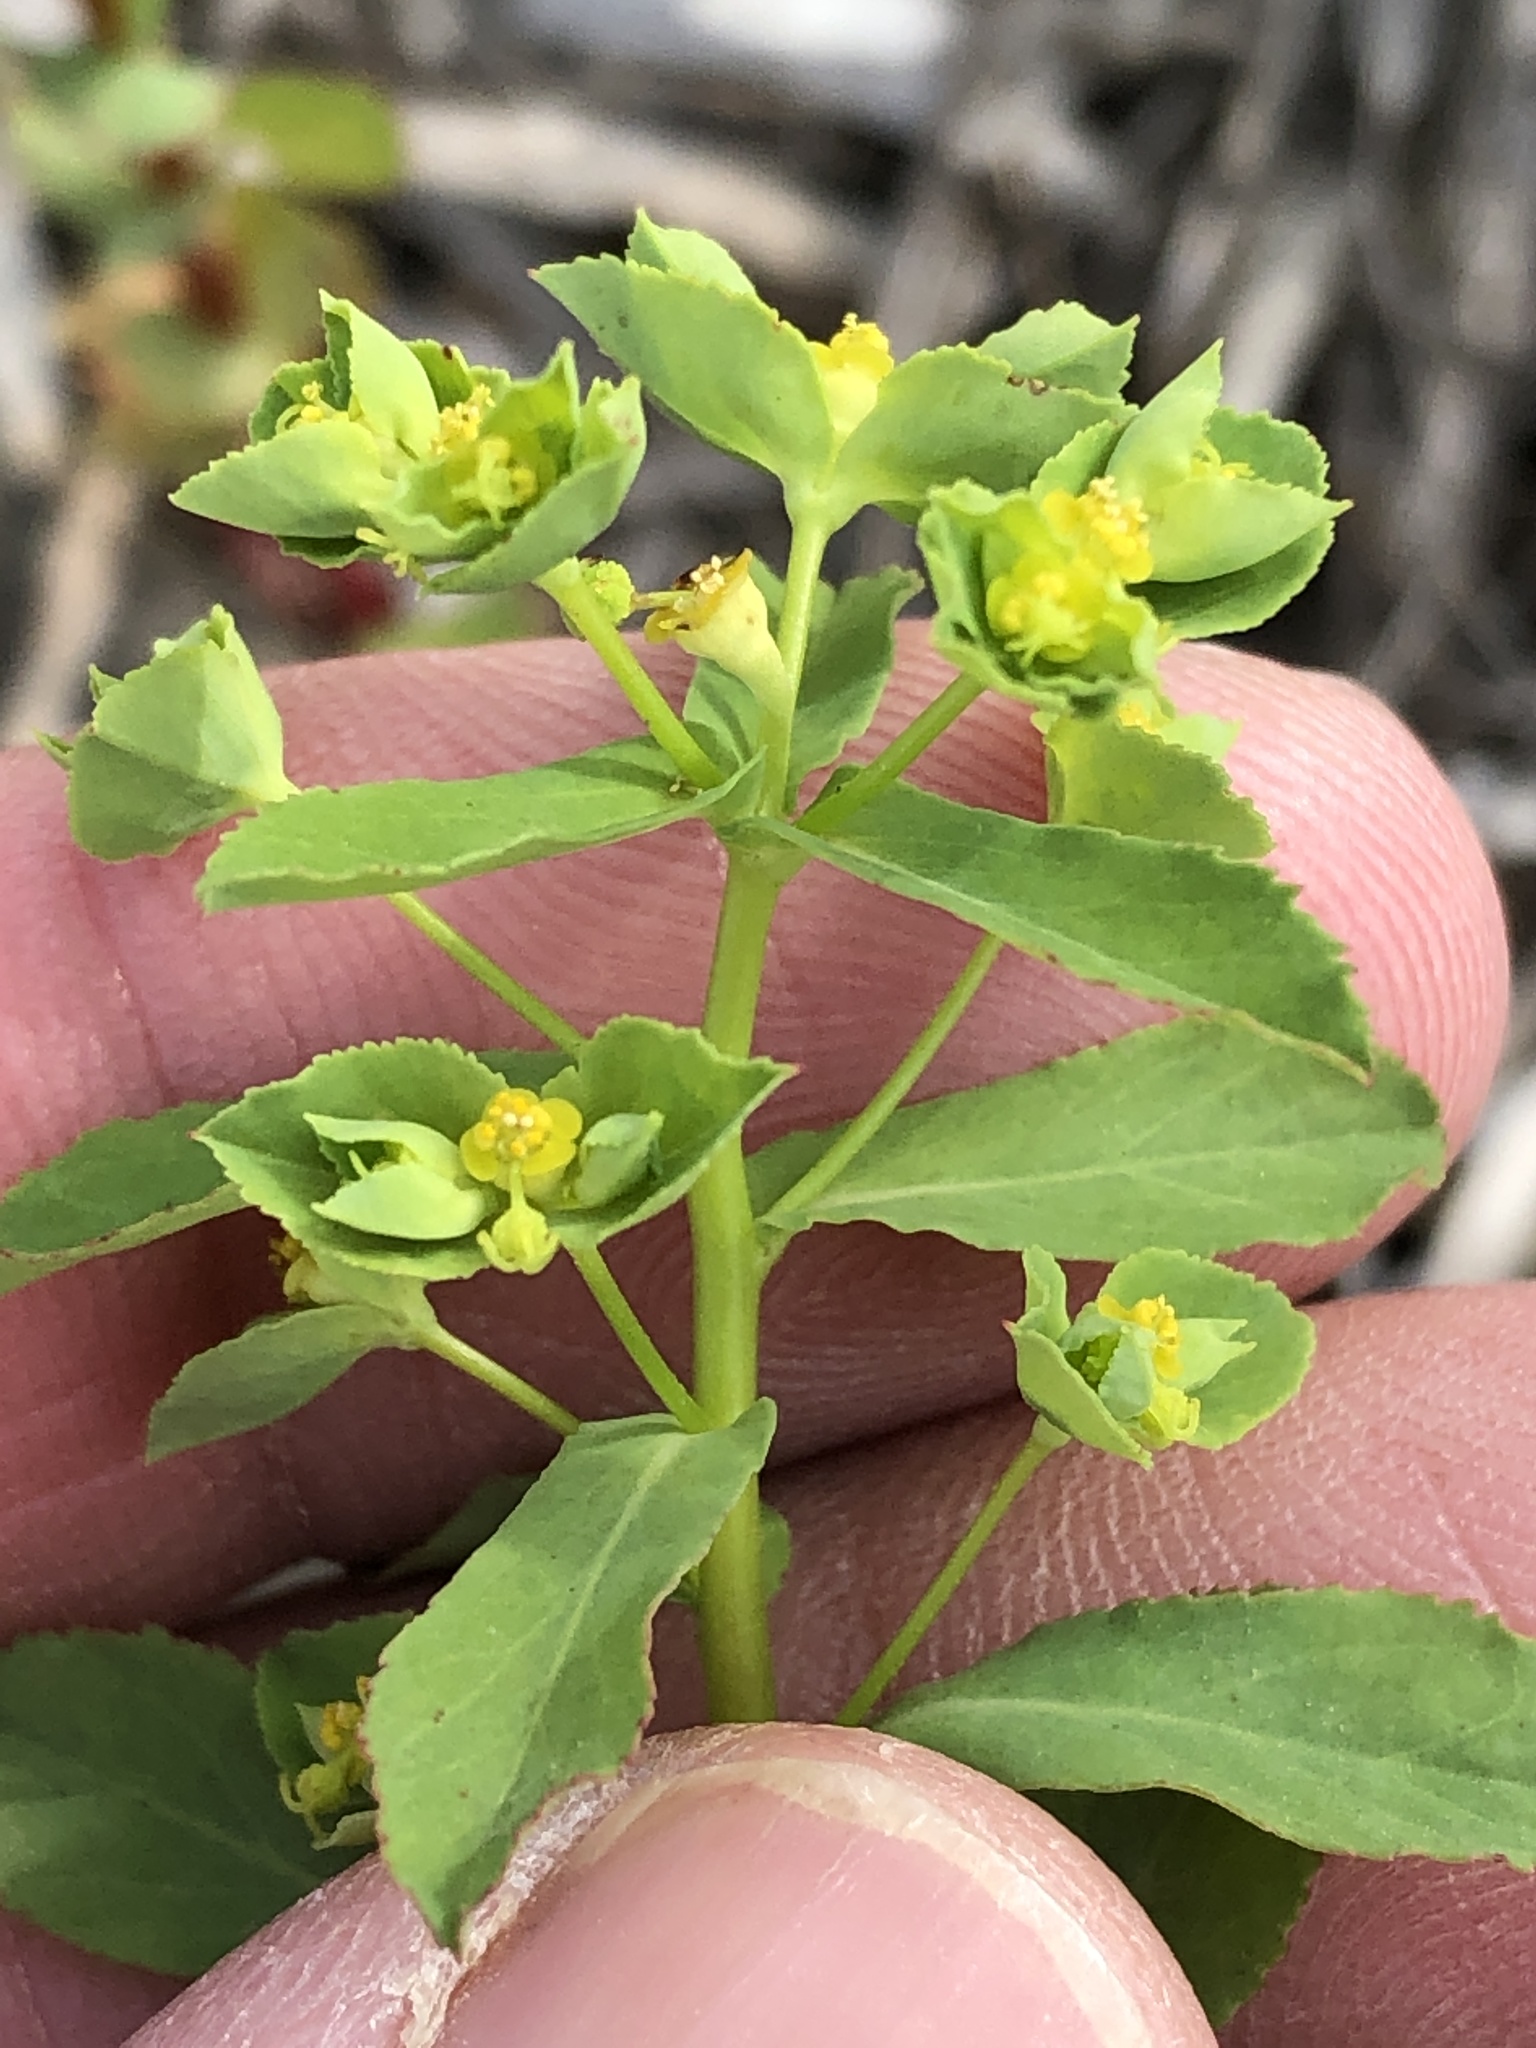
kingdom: Plantae
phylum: Tracheophyta
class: Magnoliopsida
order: Malpighiales
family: Euphorbiaceae
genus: Euphorbia
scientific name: Euphorbia spathulata
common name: Blunt spurge
